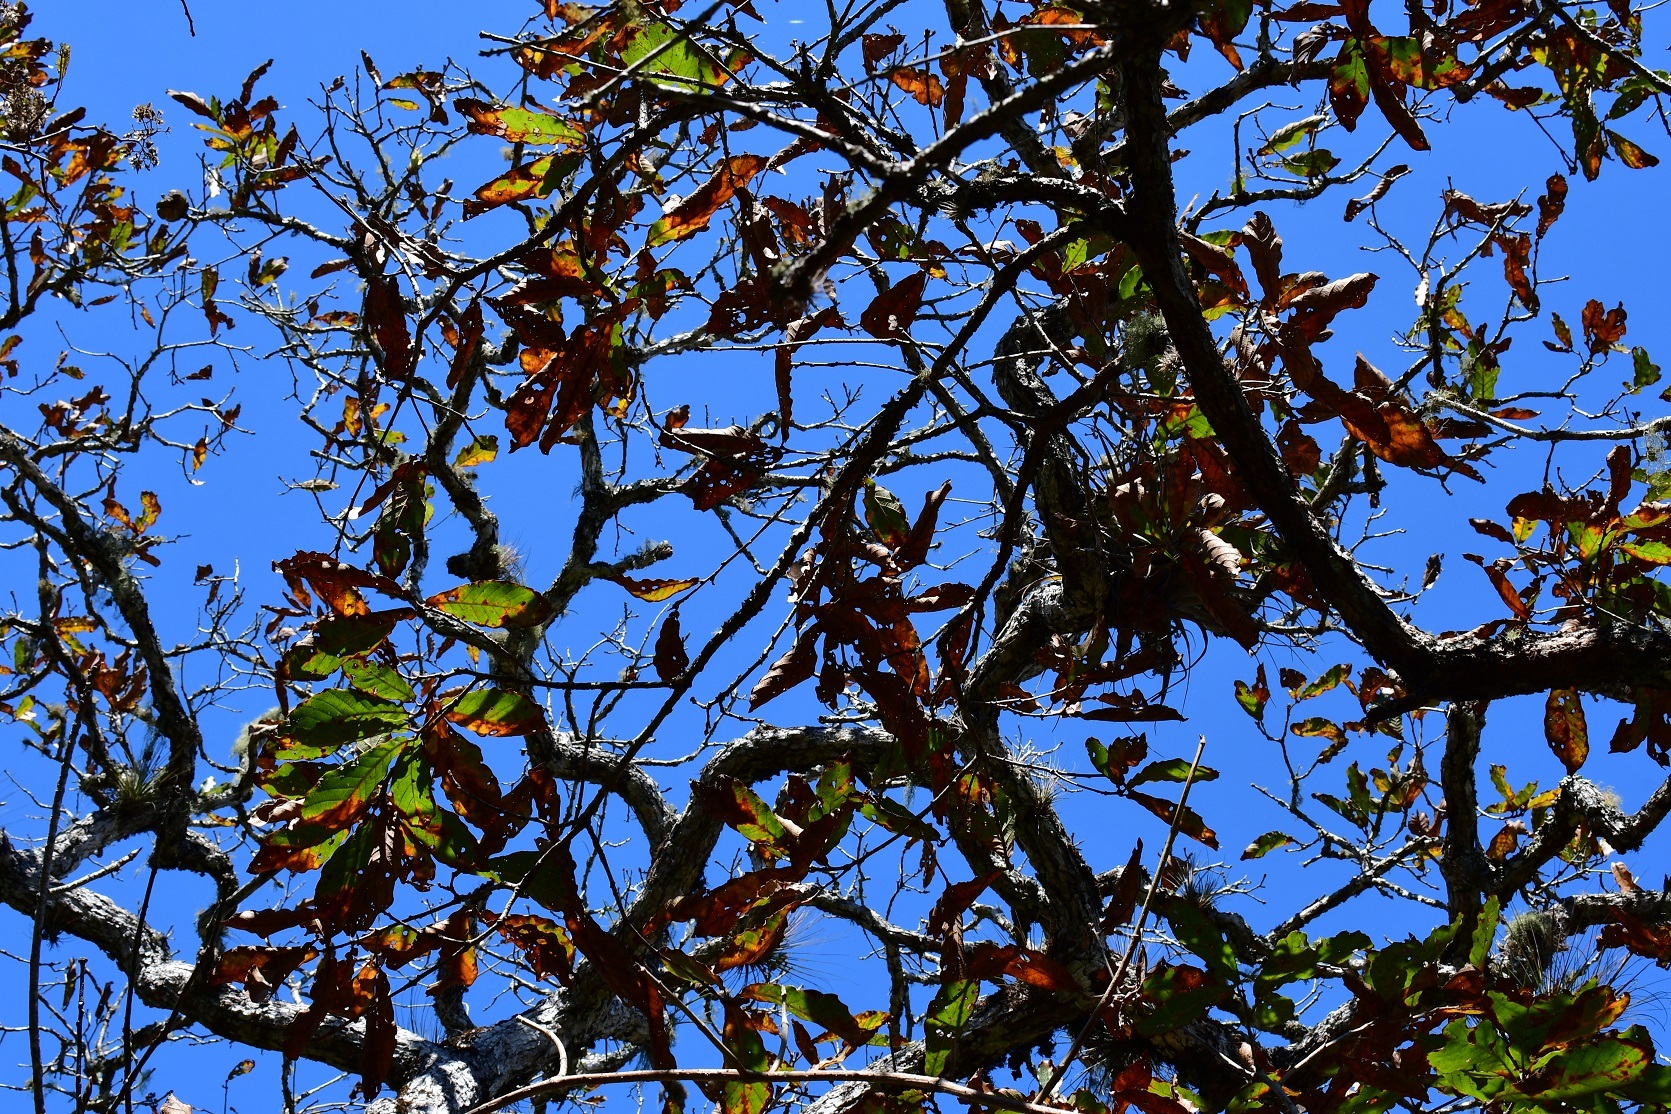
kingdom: Plantae
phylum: Tracheophyta
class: Magnoliopsida
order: Fagales
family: Fagaceae
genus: Quercus
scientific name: Quercus purulhana
